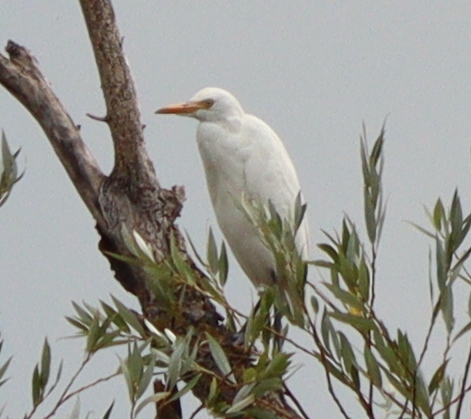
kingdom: Animalia
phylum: Chordata
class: Aves
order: Pelecaniformes
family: Ardeidae
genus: Bubulcus
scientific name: Bubulcus ibis
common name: Cattle egret
